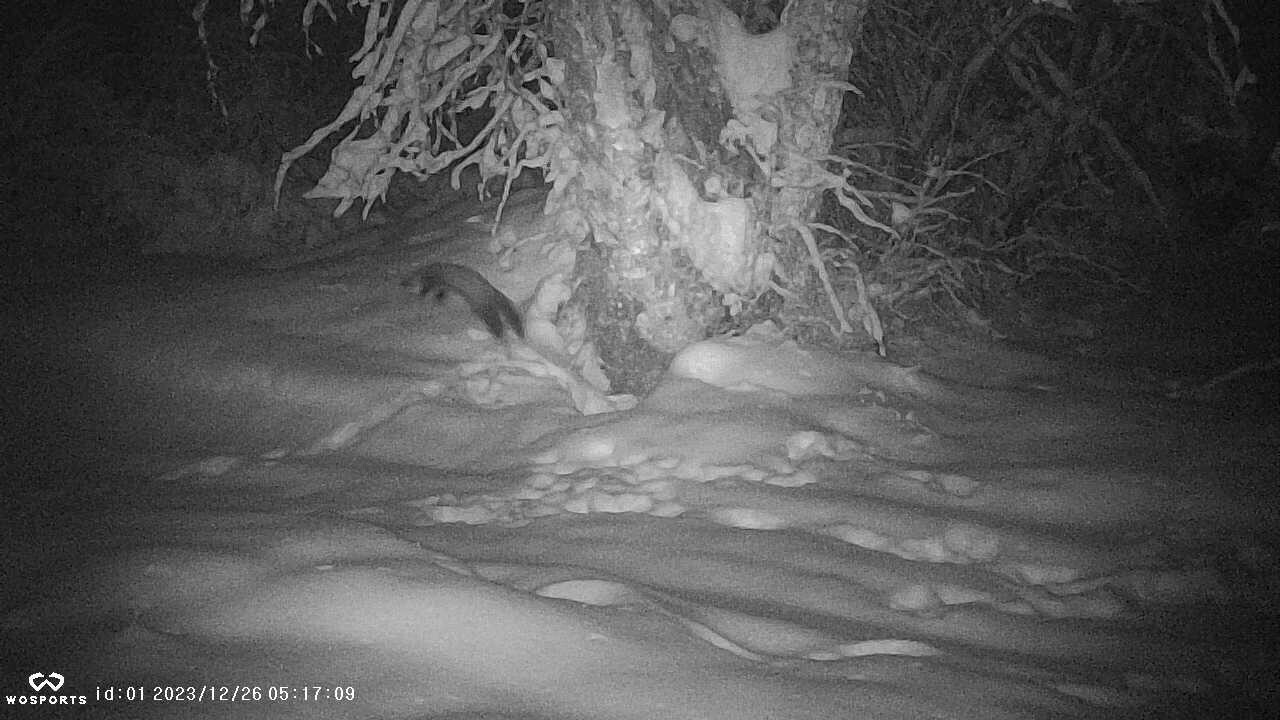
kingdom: Animalia
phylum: Chordata
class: Mammalia
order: Carnivora
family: Mustelidae
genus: Martes
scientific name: Martes americana
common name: American marten
